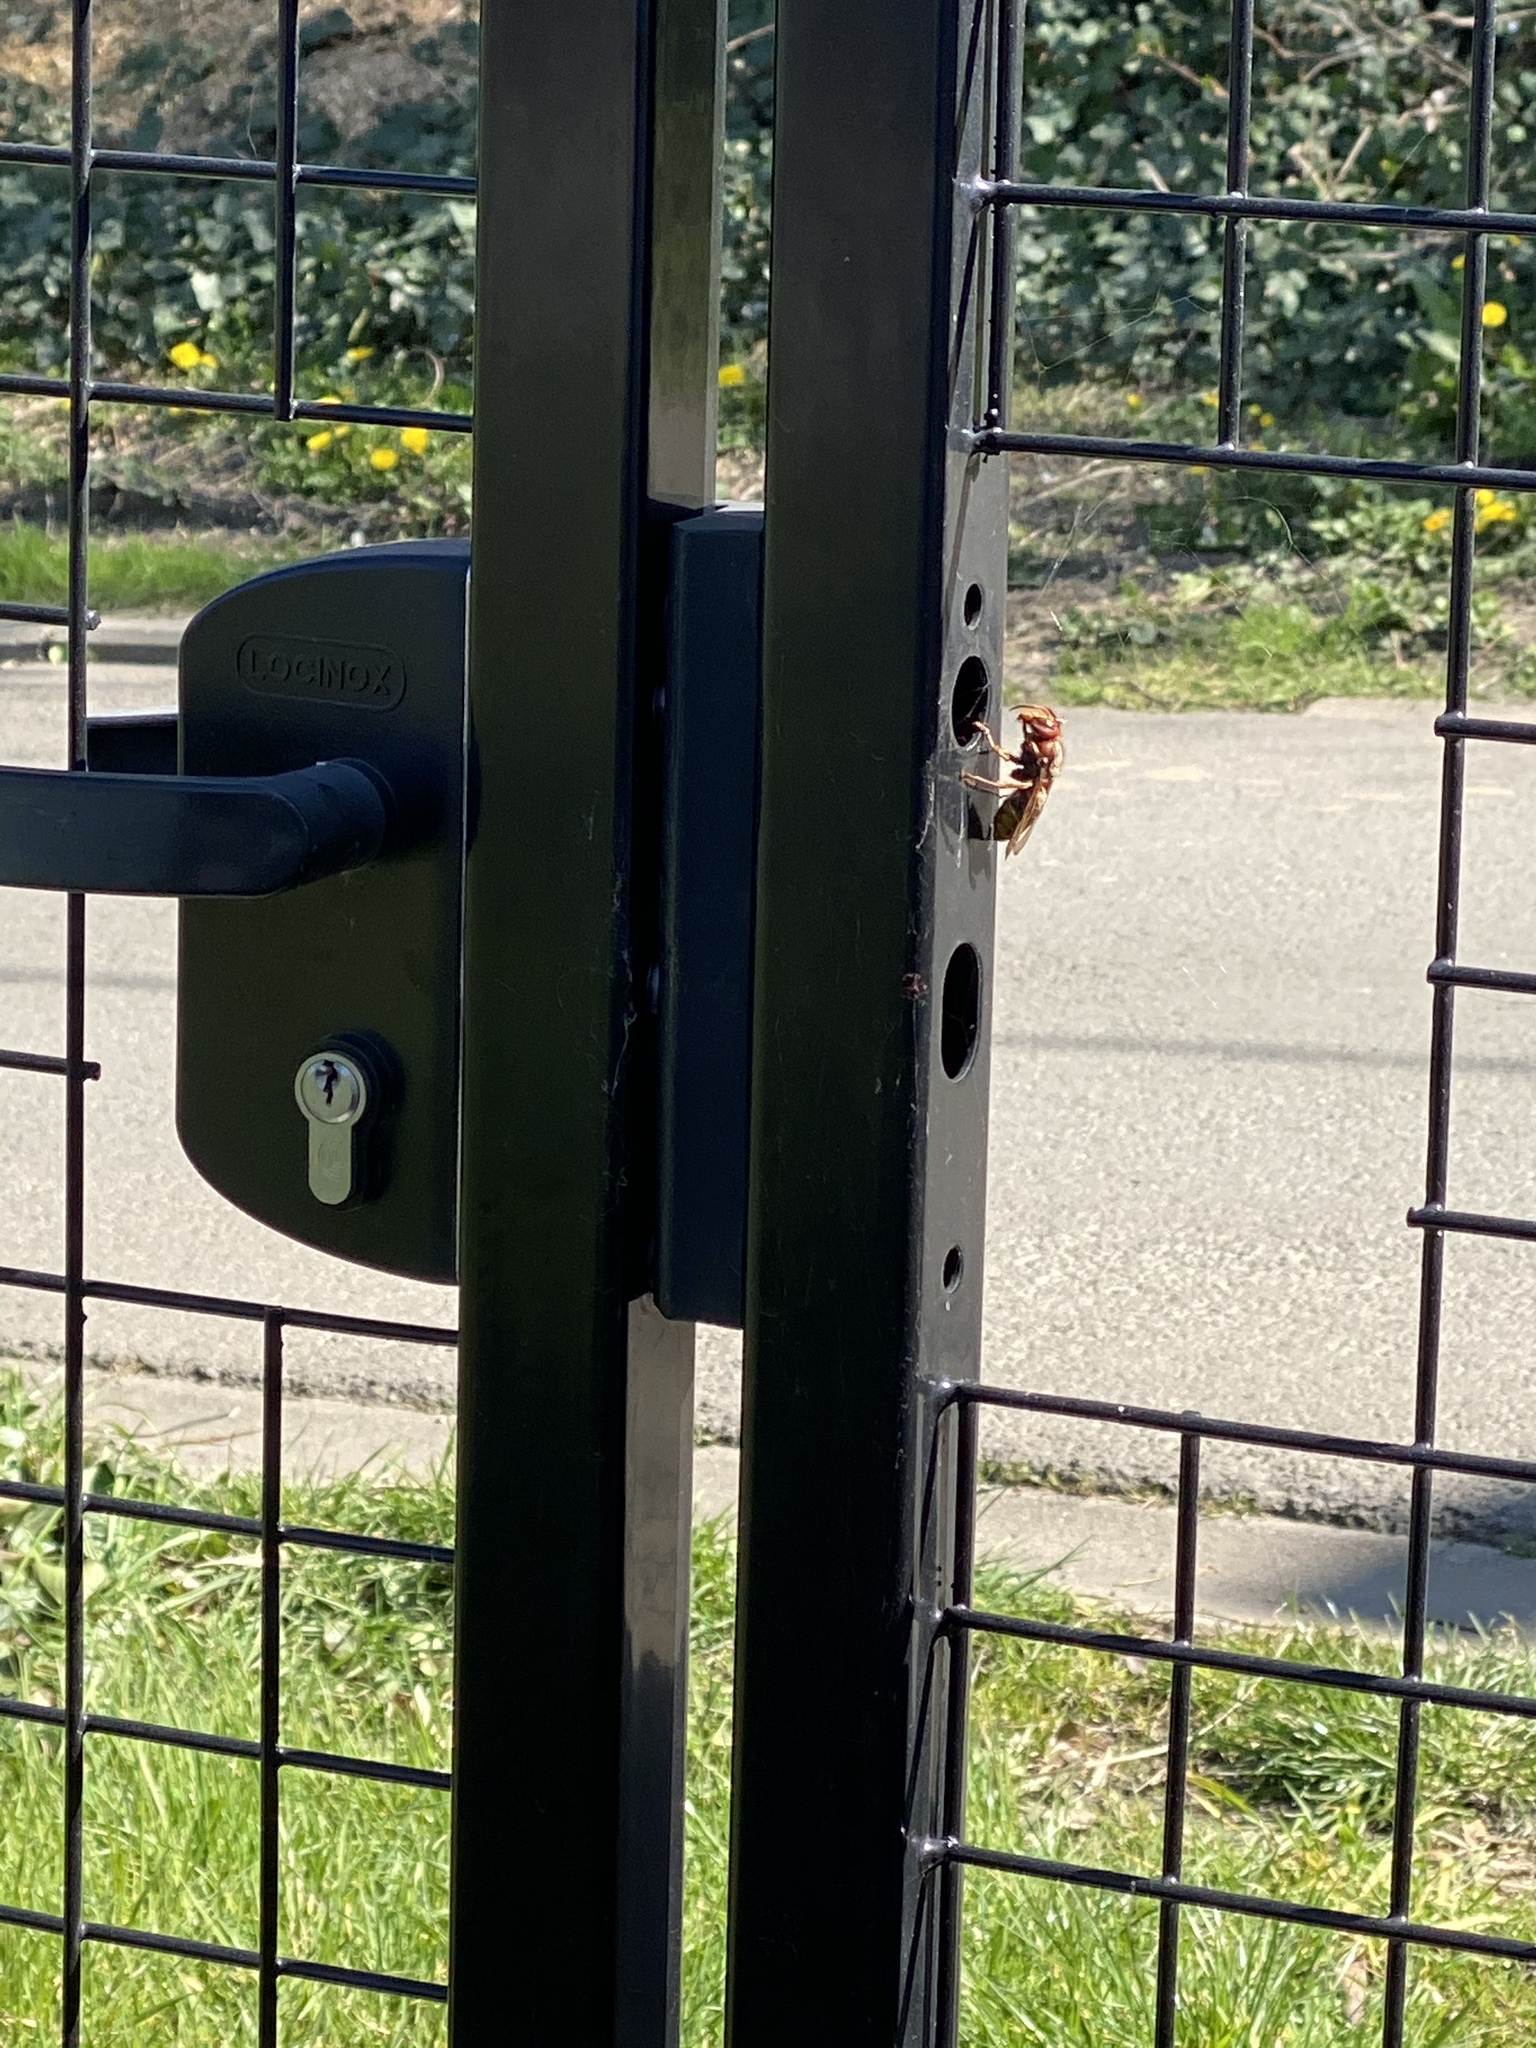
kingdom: Animalia
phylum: Arthropoda
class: Insecta
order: Hymenoptera
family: Vespidae
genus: Vespa
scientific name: Vespa crabro
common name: Hornet
